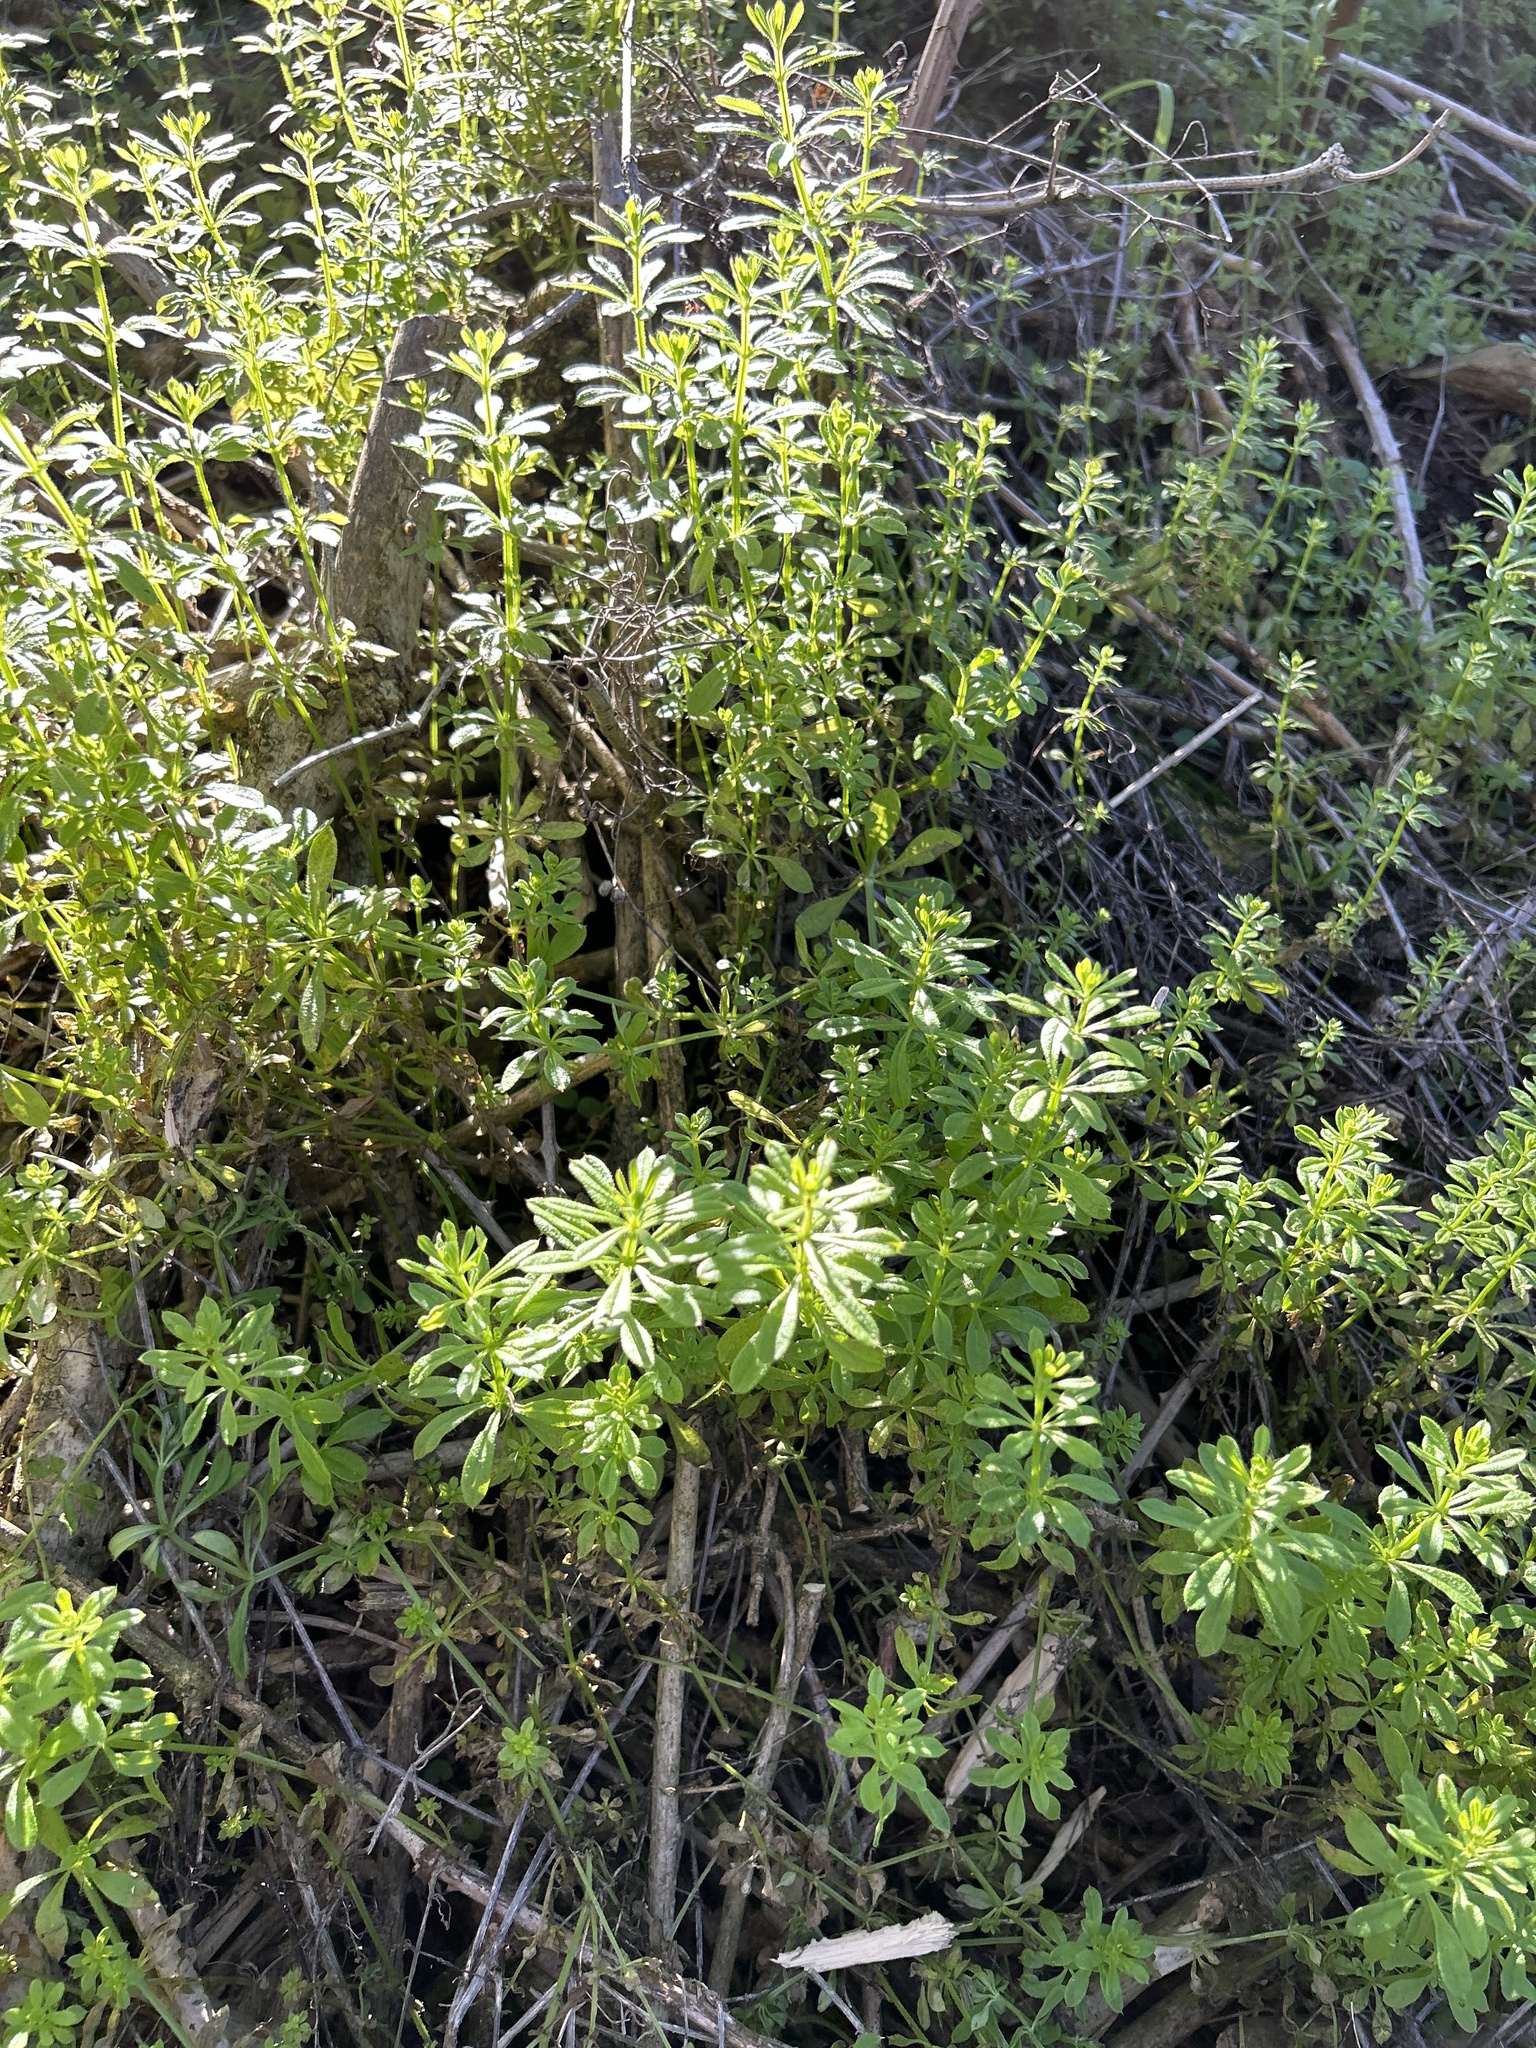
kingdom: Plantae
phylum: Tracheophyta
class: Magnoliopsida
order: Gentianales
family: Rubiaceae
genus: Galium
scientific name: Galium aparine
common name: Cleavers
